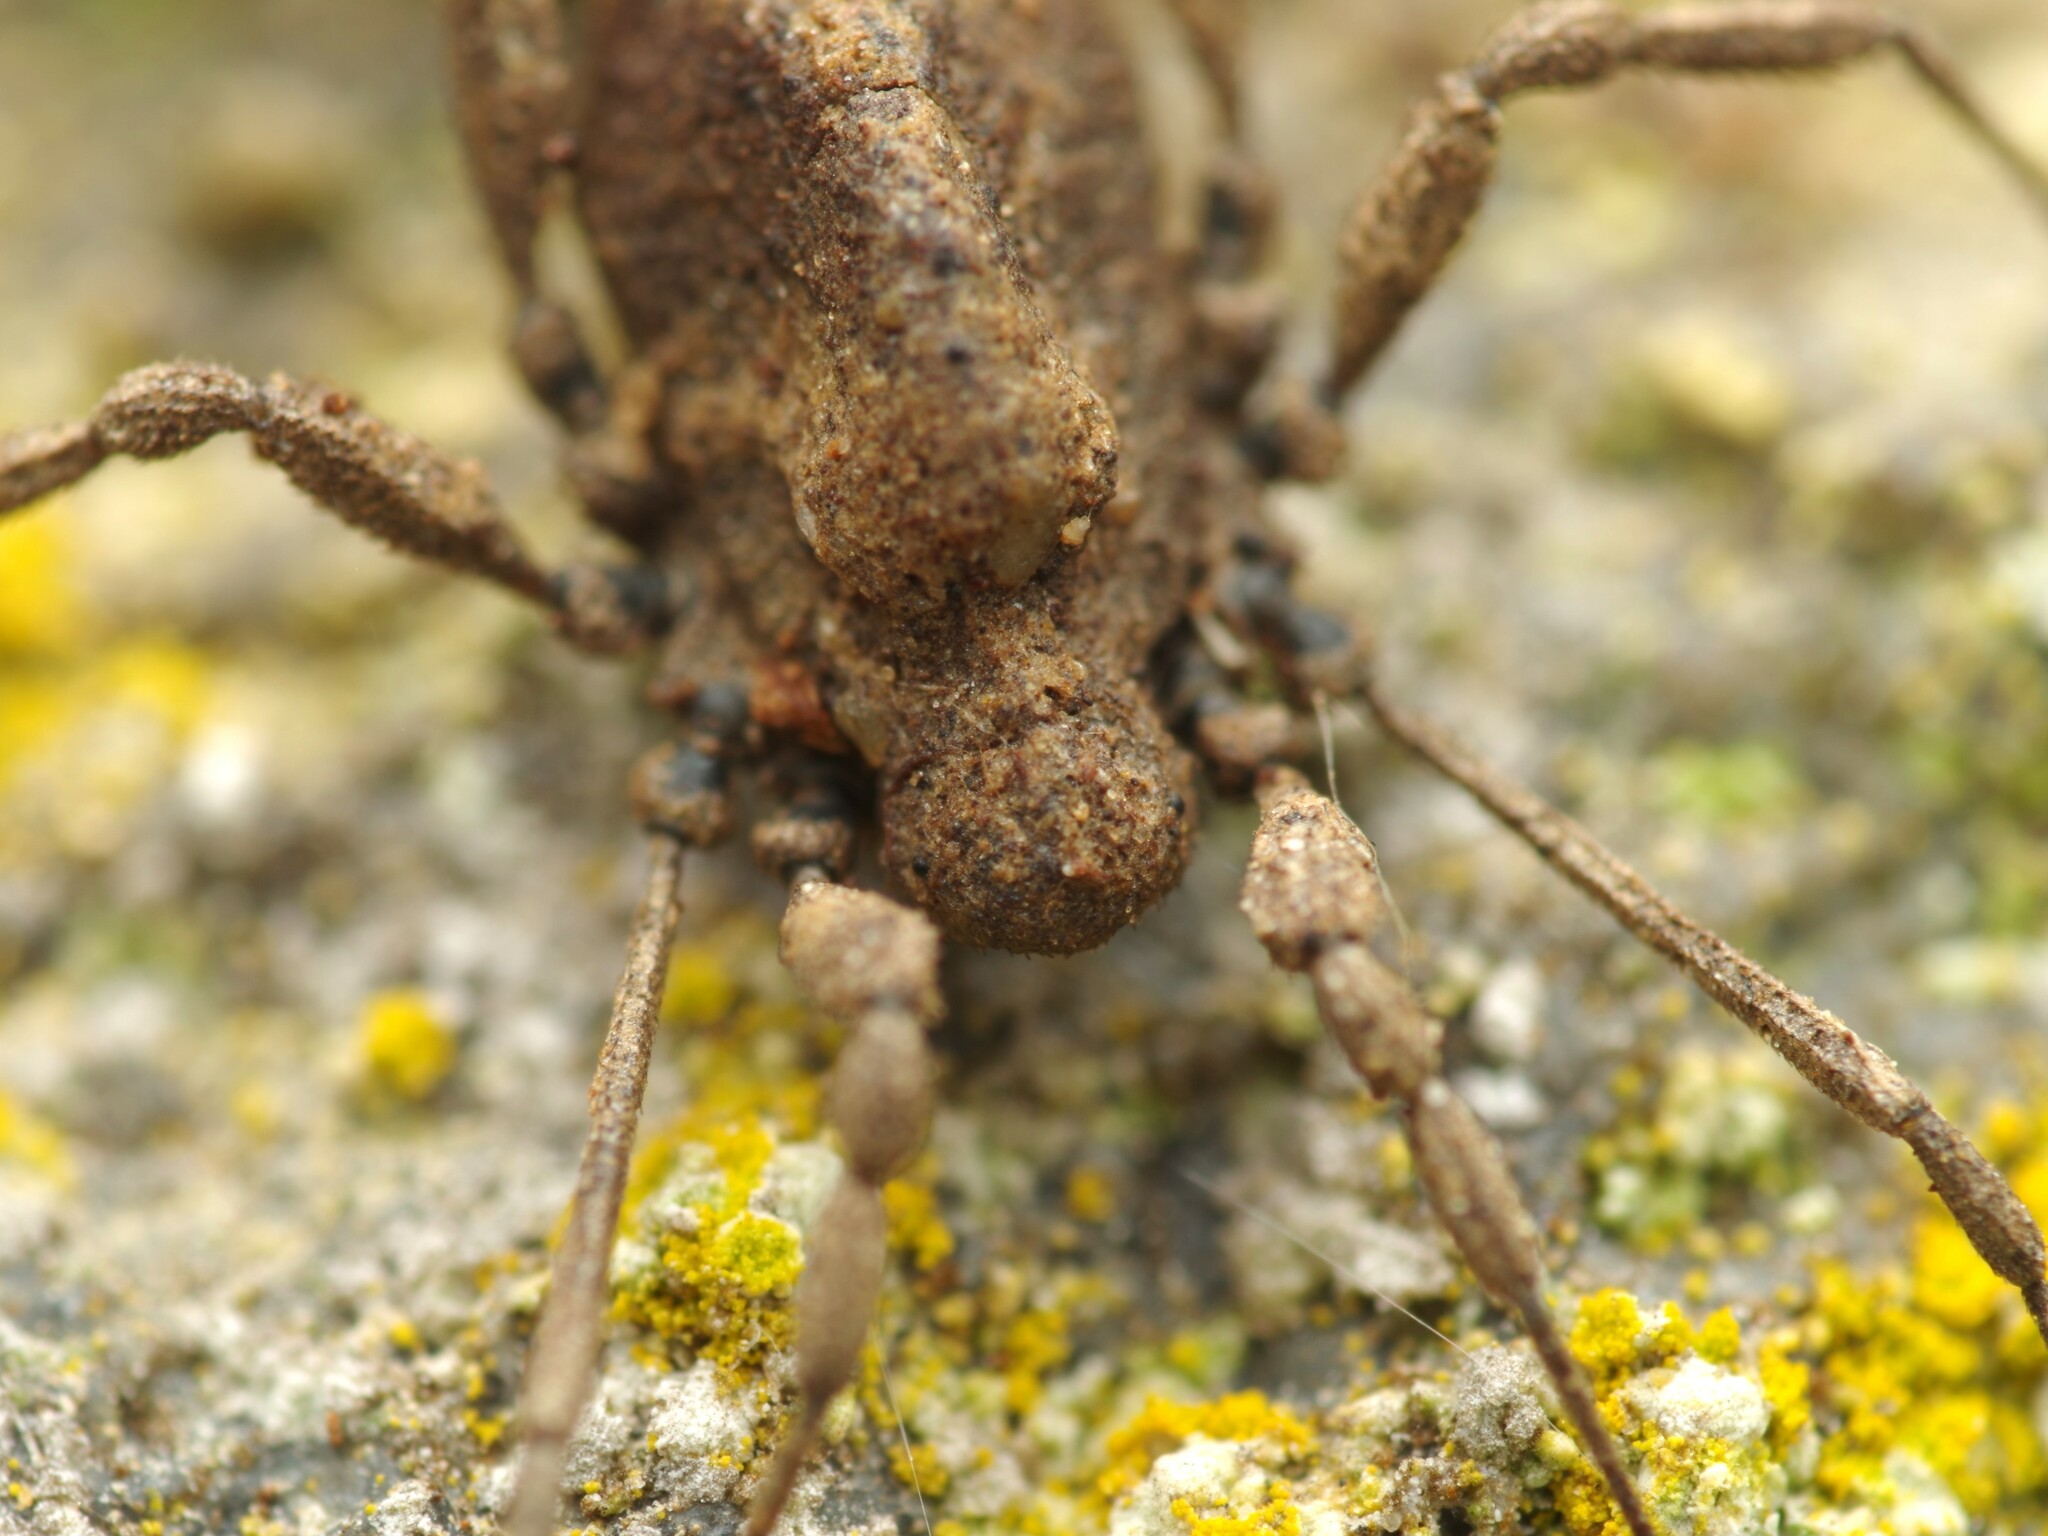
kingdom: Animalia
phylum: Arthropoda
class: Arachnida
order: Opiliones
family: Dicranolasmatidae
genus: Dicranolasma
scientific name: Dicranolasma soerensenii
